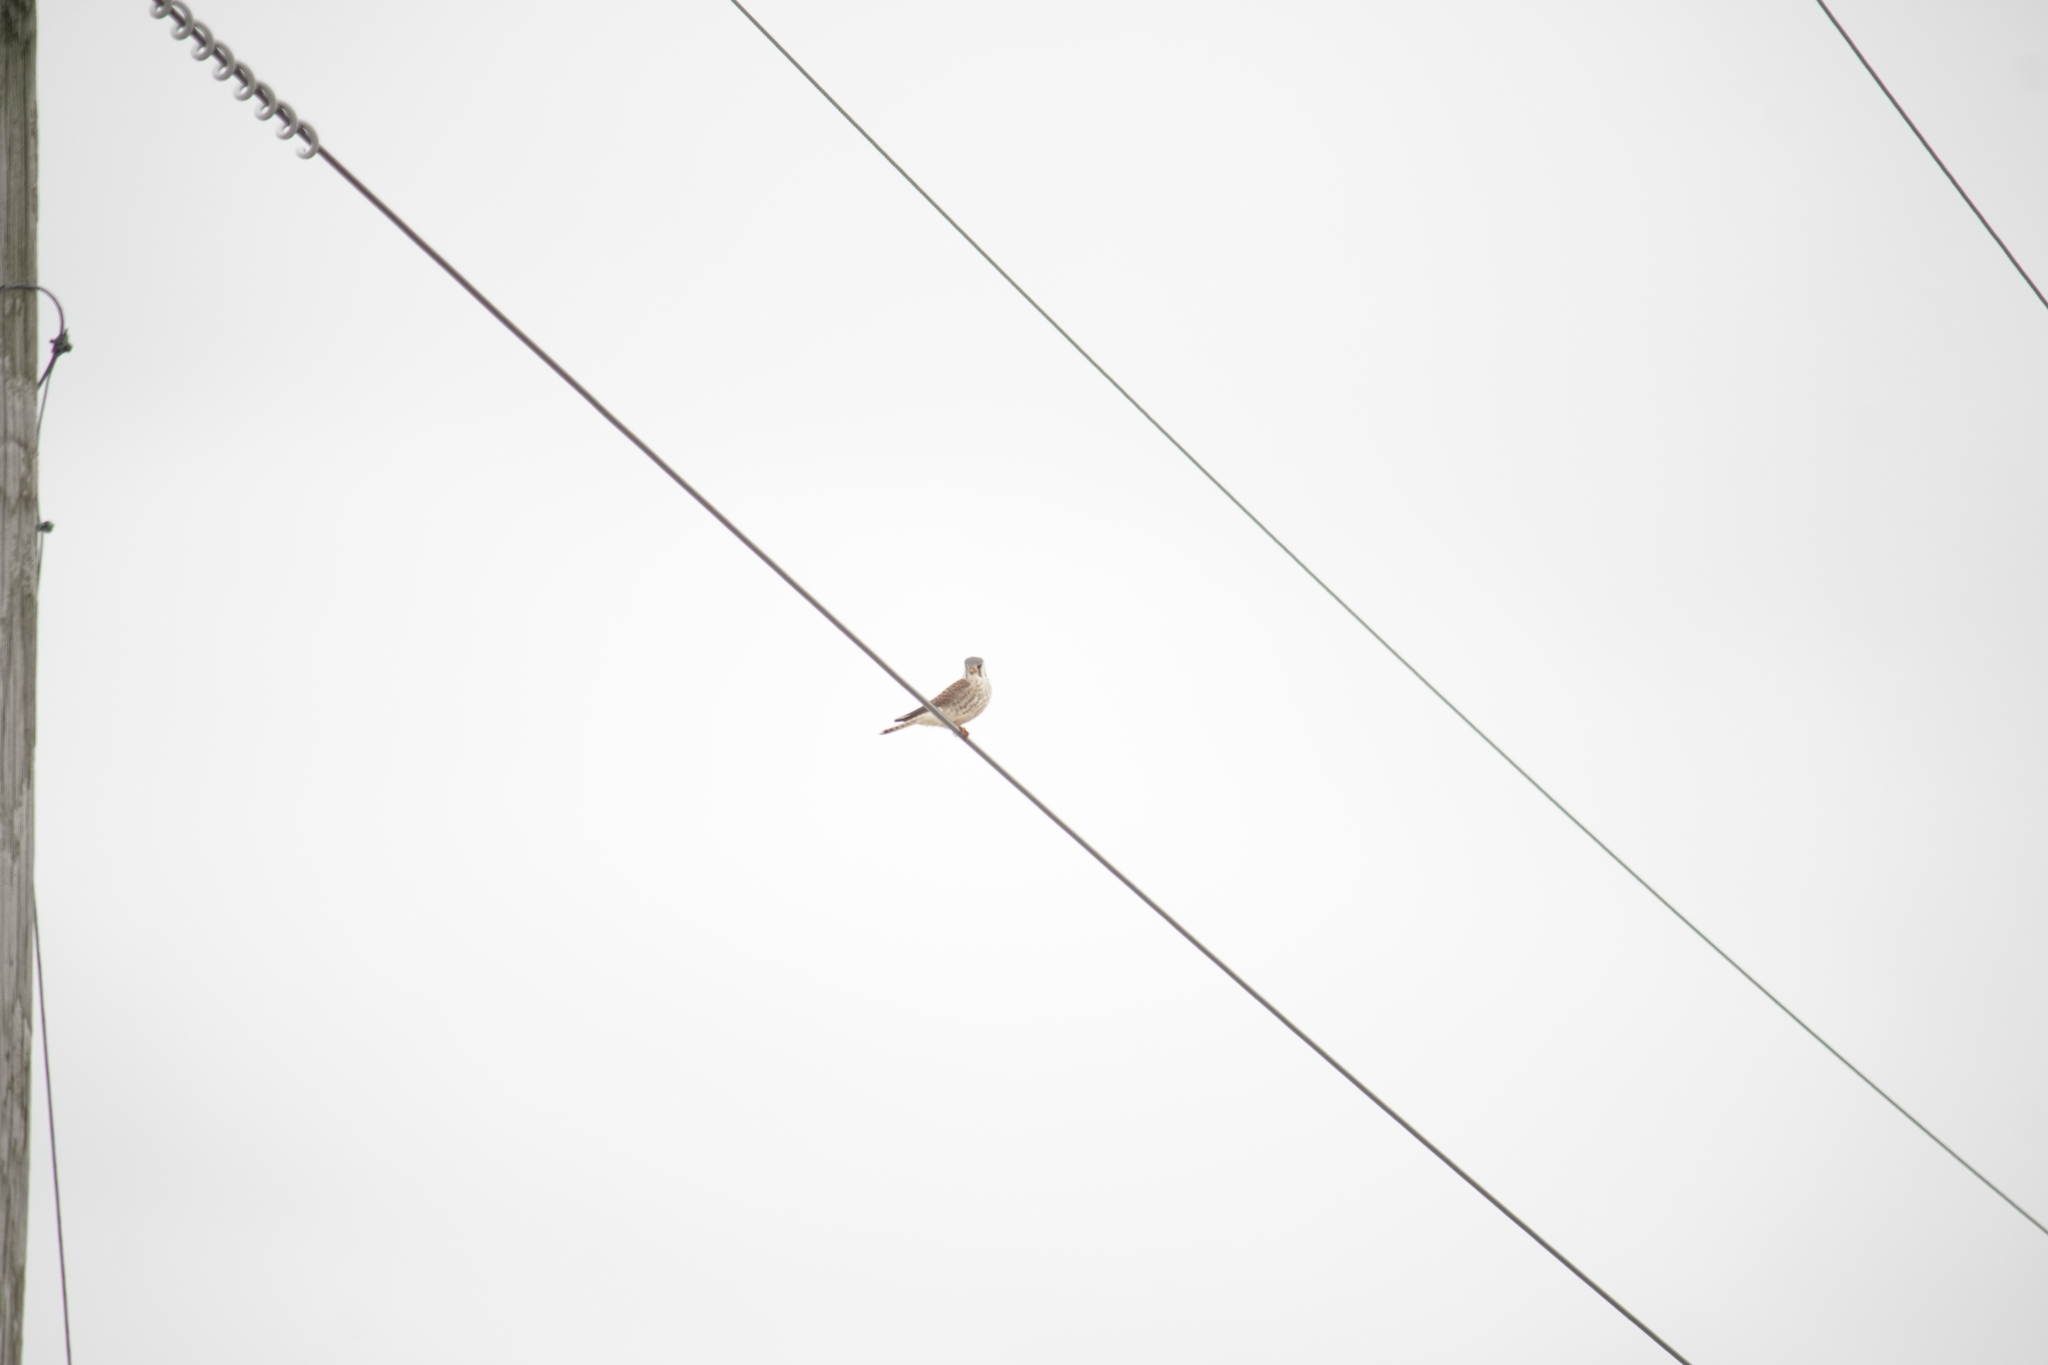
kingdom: Animalia
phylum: Chordata
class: Aves
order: Falconiformes
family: Falconidae
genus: Falco
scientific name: Falco sparverius
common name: American kestrel
